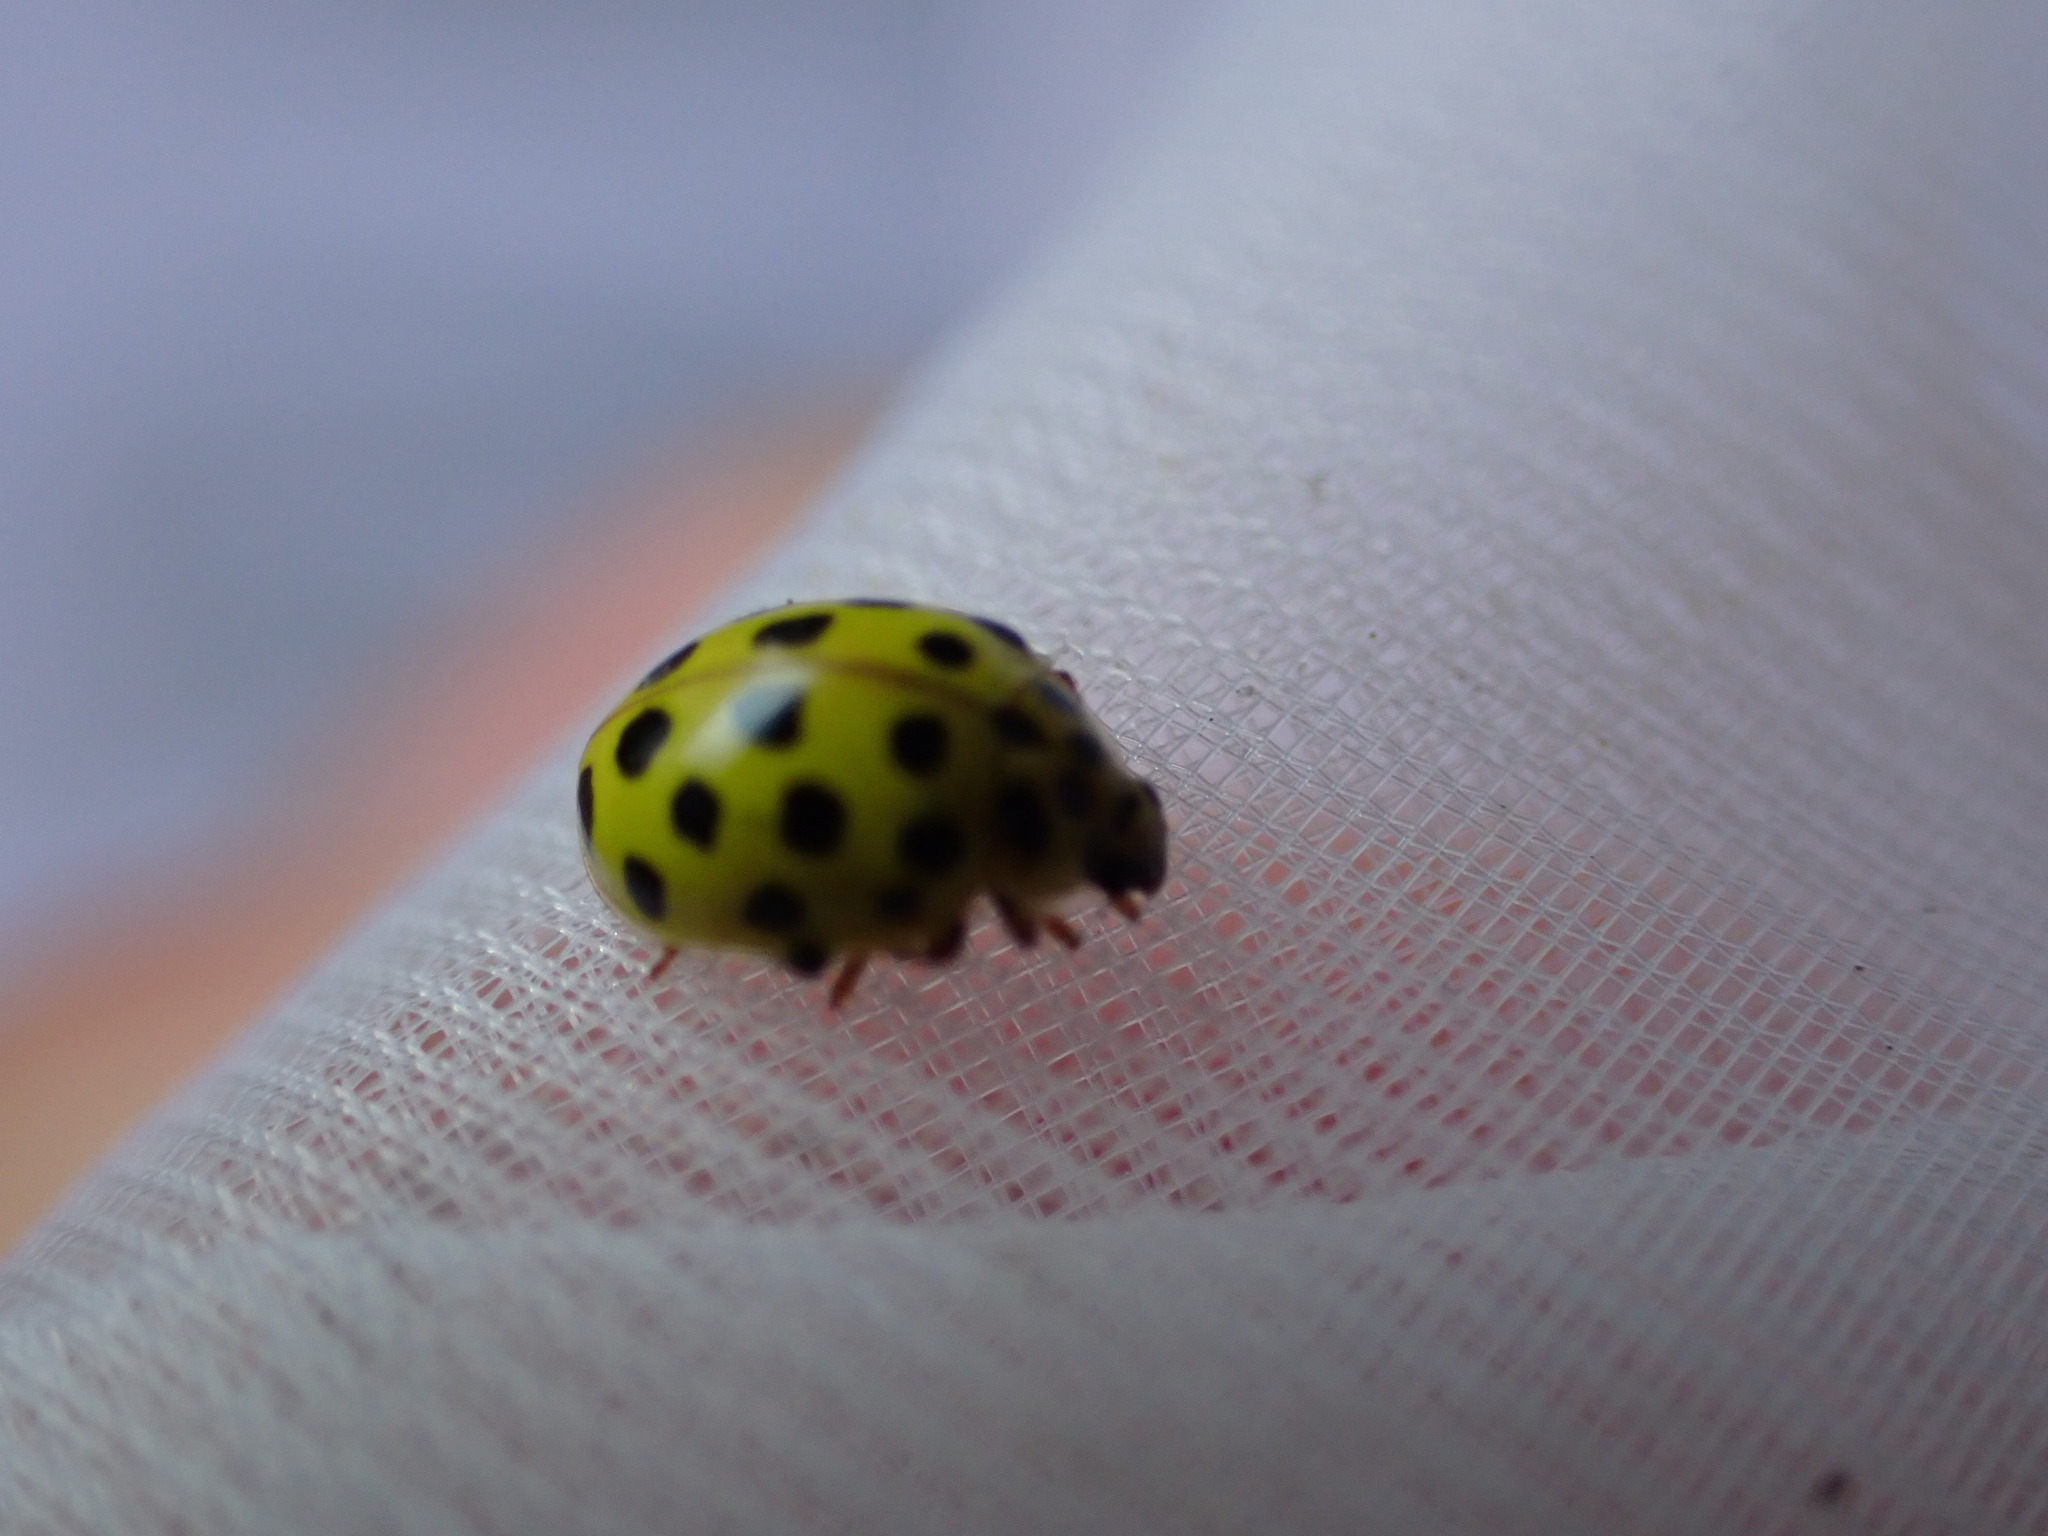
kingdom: Animalia
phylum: Arthropoda
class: Insecta
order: Coleoptera
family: Coccinellidae
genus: Psyllobora
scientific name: Psyllobora vigintiduopunctata
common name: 22-spot ladybird
